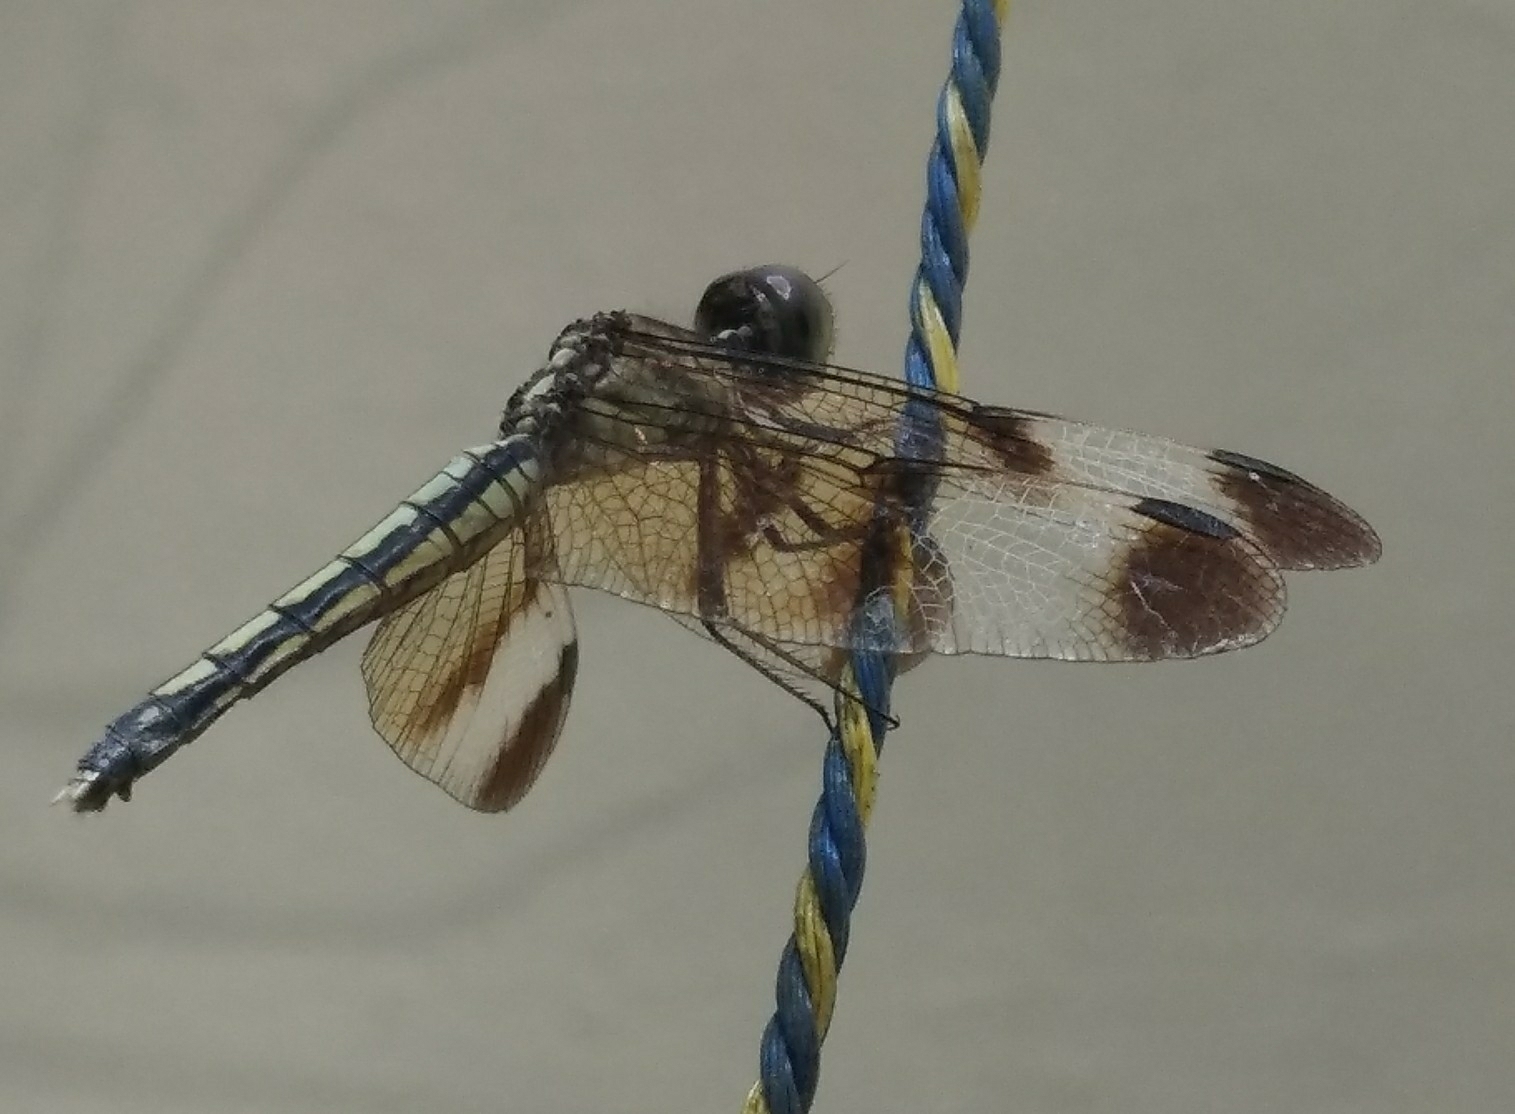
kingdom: Animalia
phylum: Arthropoda
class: Insecta
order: Odonata
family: Libellulidae
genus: Neurothemis
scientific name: Neurothemis tullia
